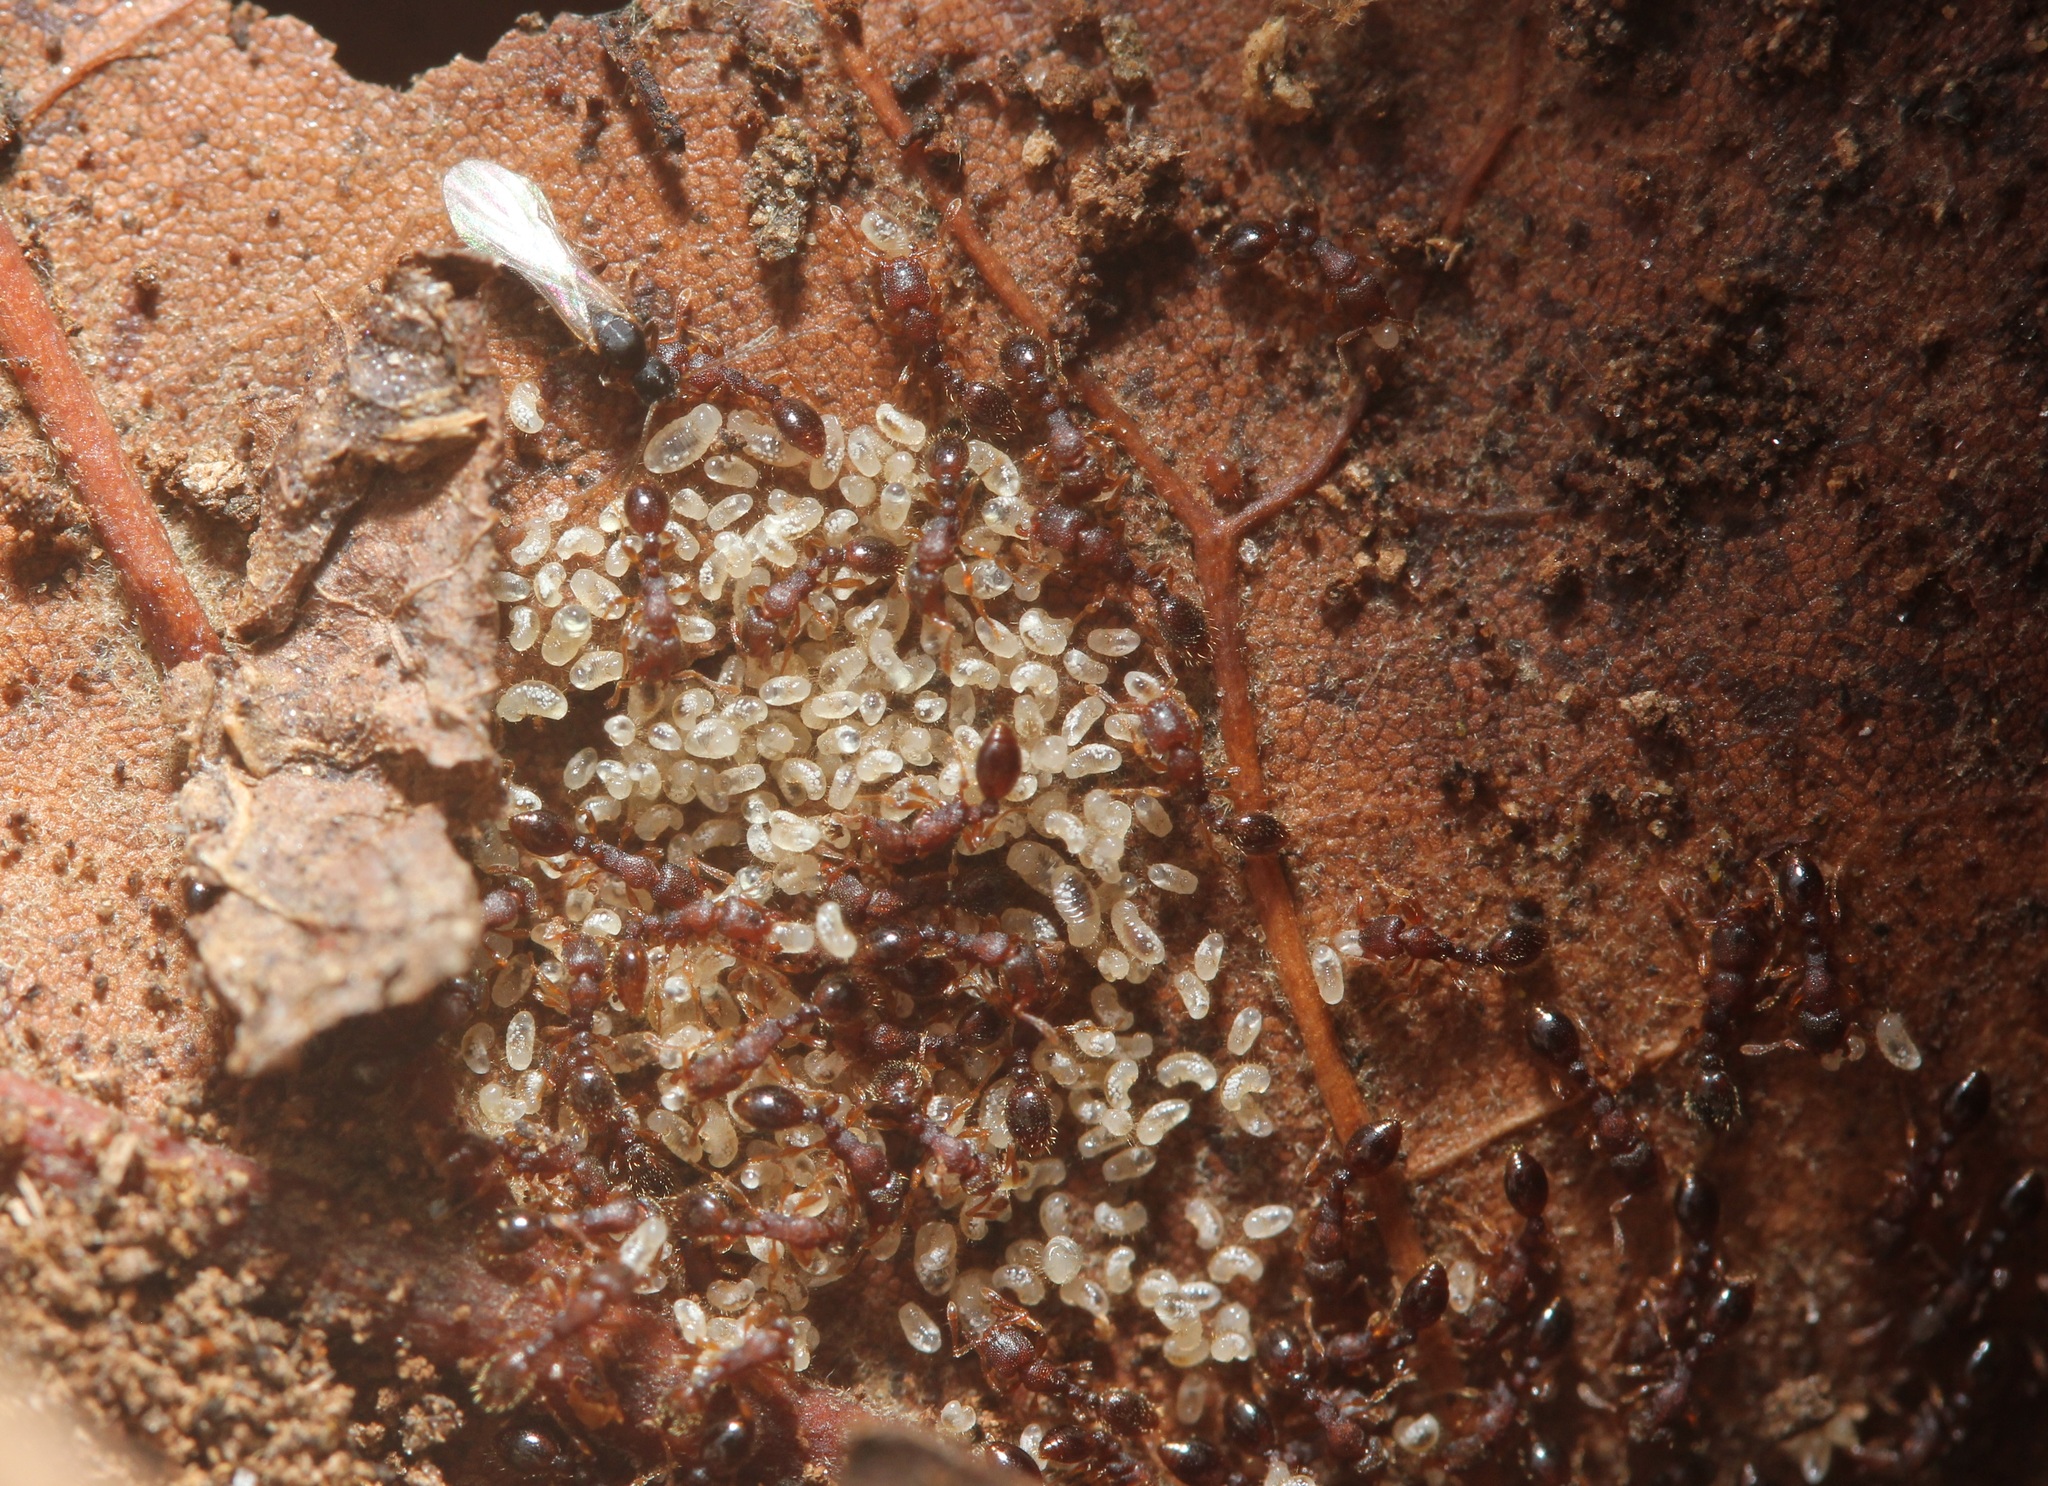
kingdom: Animalia
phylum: Arthropoda
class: Insecta
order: Hymenoptera
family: Formicidae
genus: Vollenhovia
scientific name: Vollenhovia emeryi
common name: Ant
